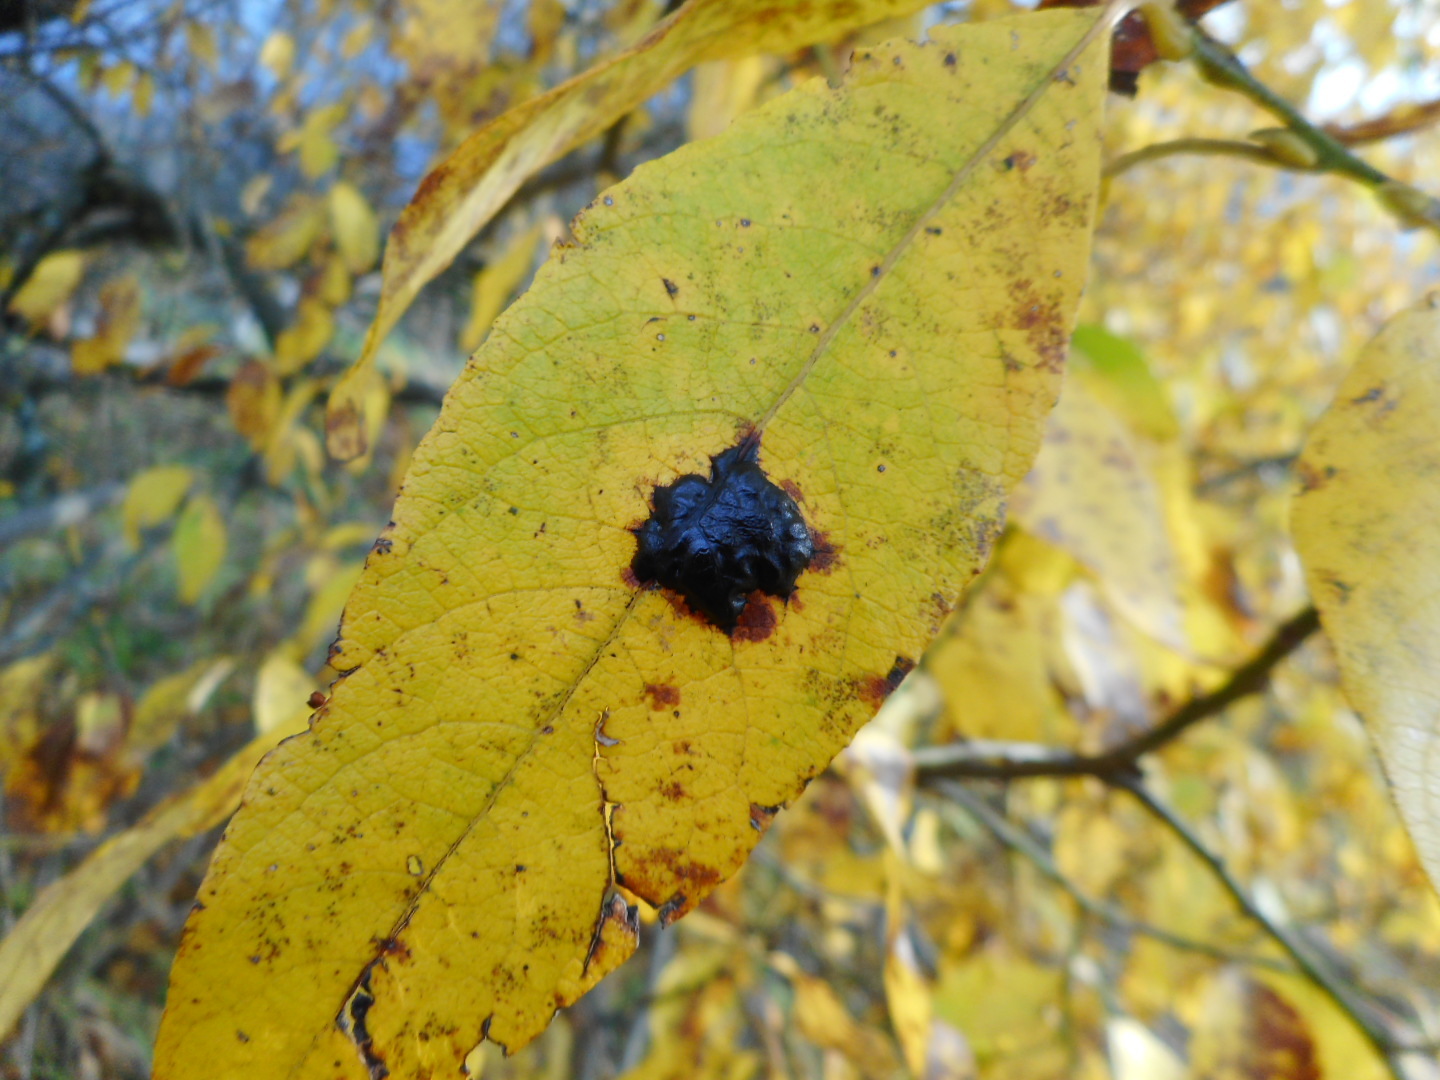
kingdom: Fungi
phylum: Ascomycota
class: Leotiomycetes
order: Rhytismatales
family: Rhytismataceae
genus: Rhytisma
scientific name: Rhytisma salicinum
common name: Willow tarspot
